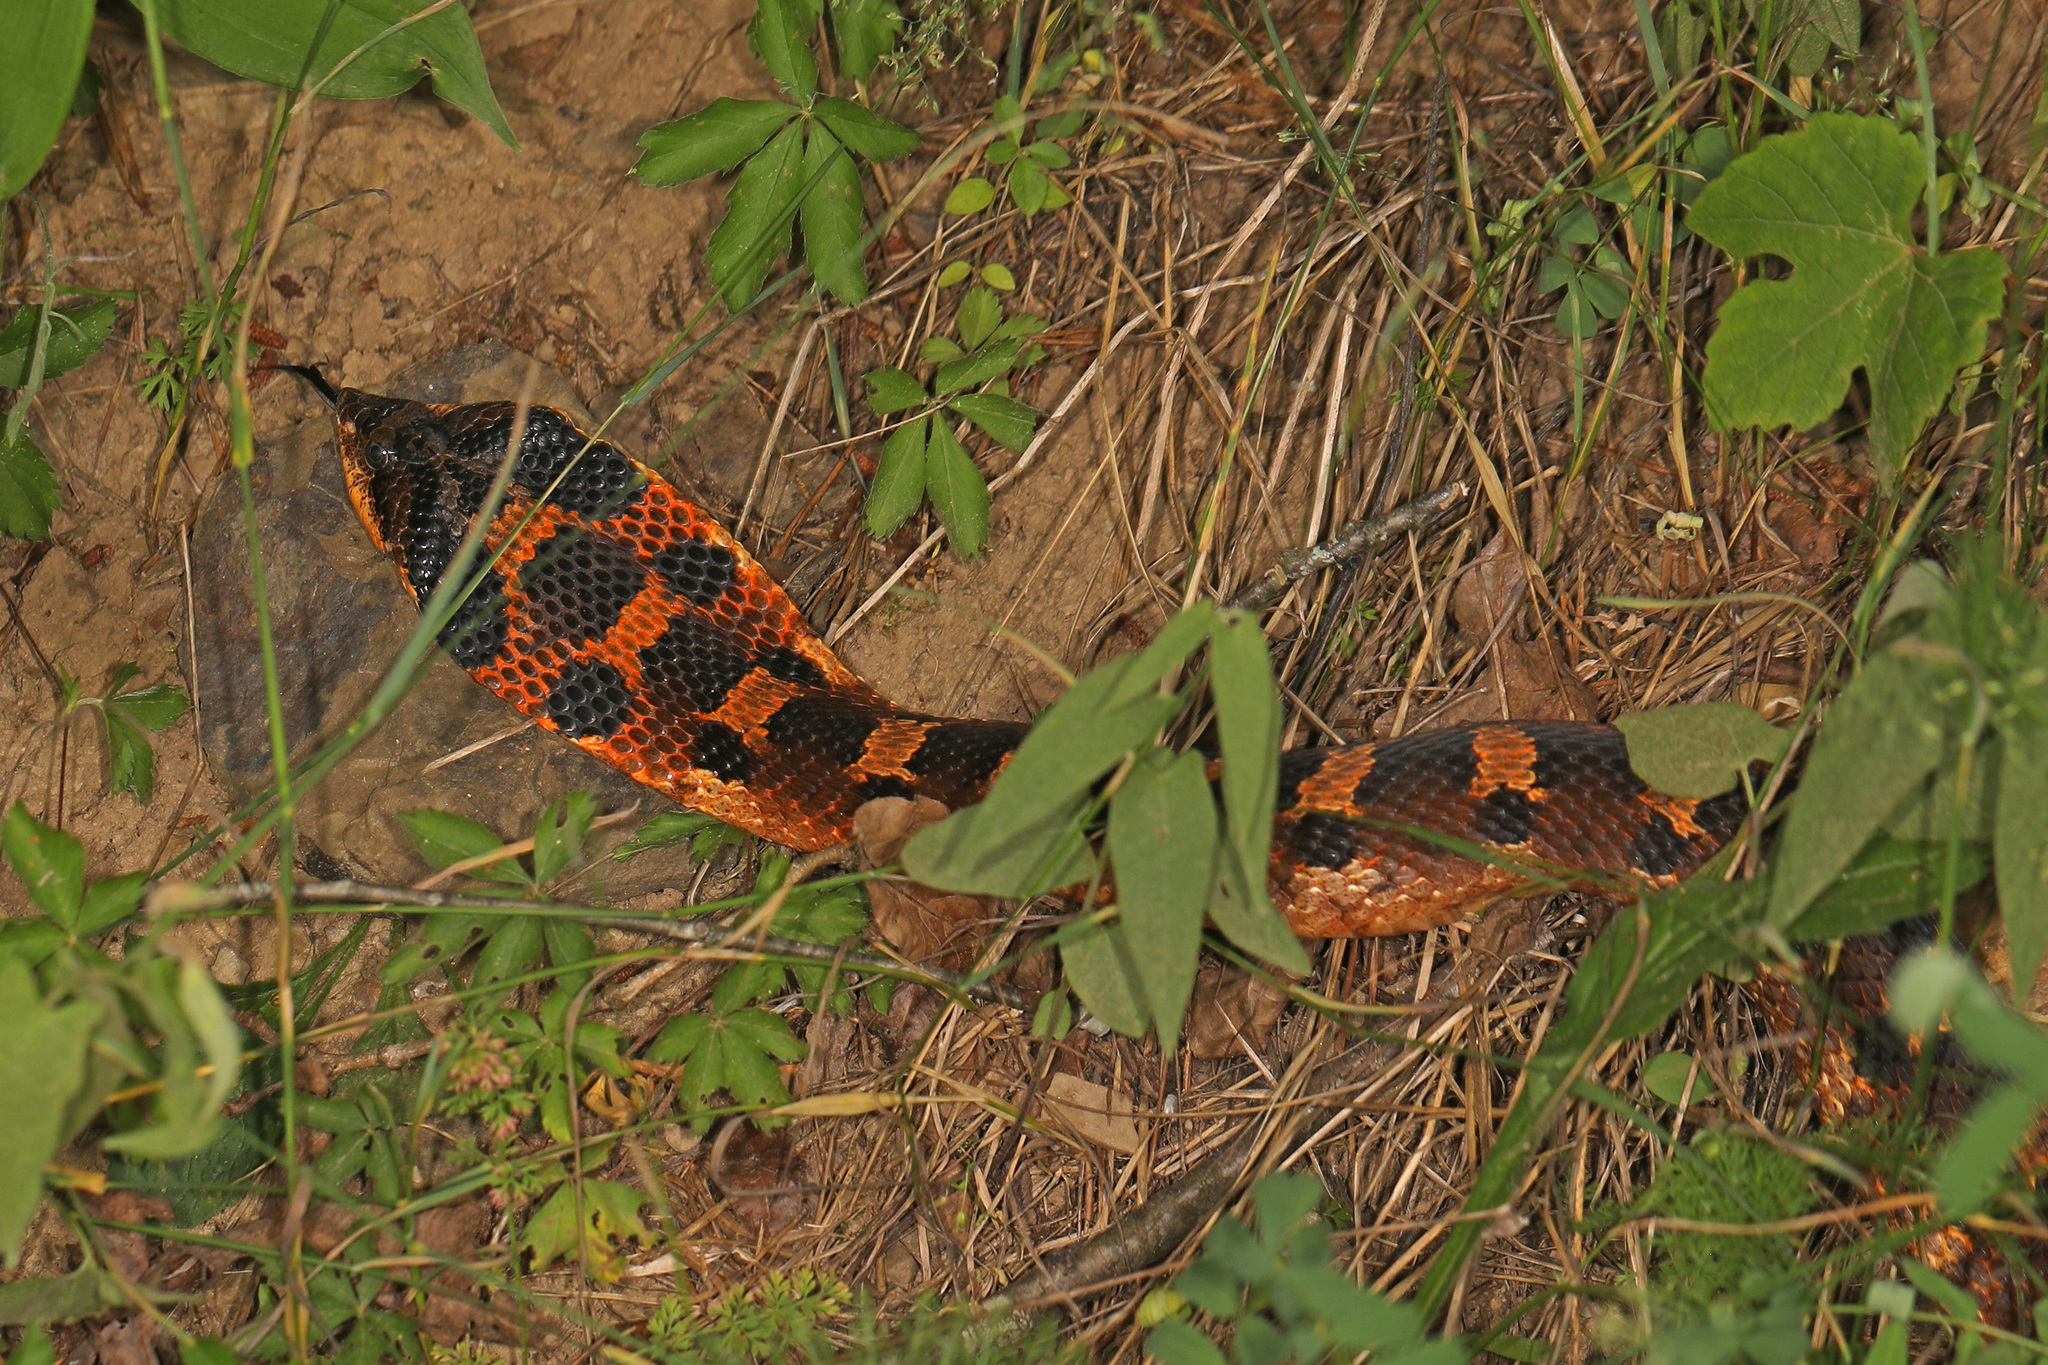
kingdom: Animalia
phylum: Chordata
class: Squamata
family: Colubridae
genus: Heterodon
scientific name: Heterodon platirhinos
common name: Eastern hognose snake
